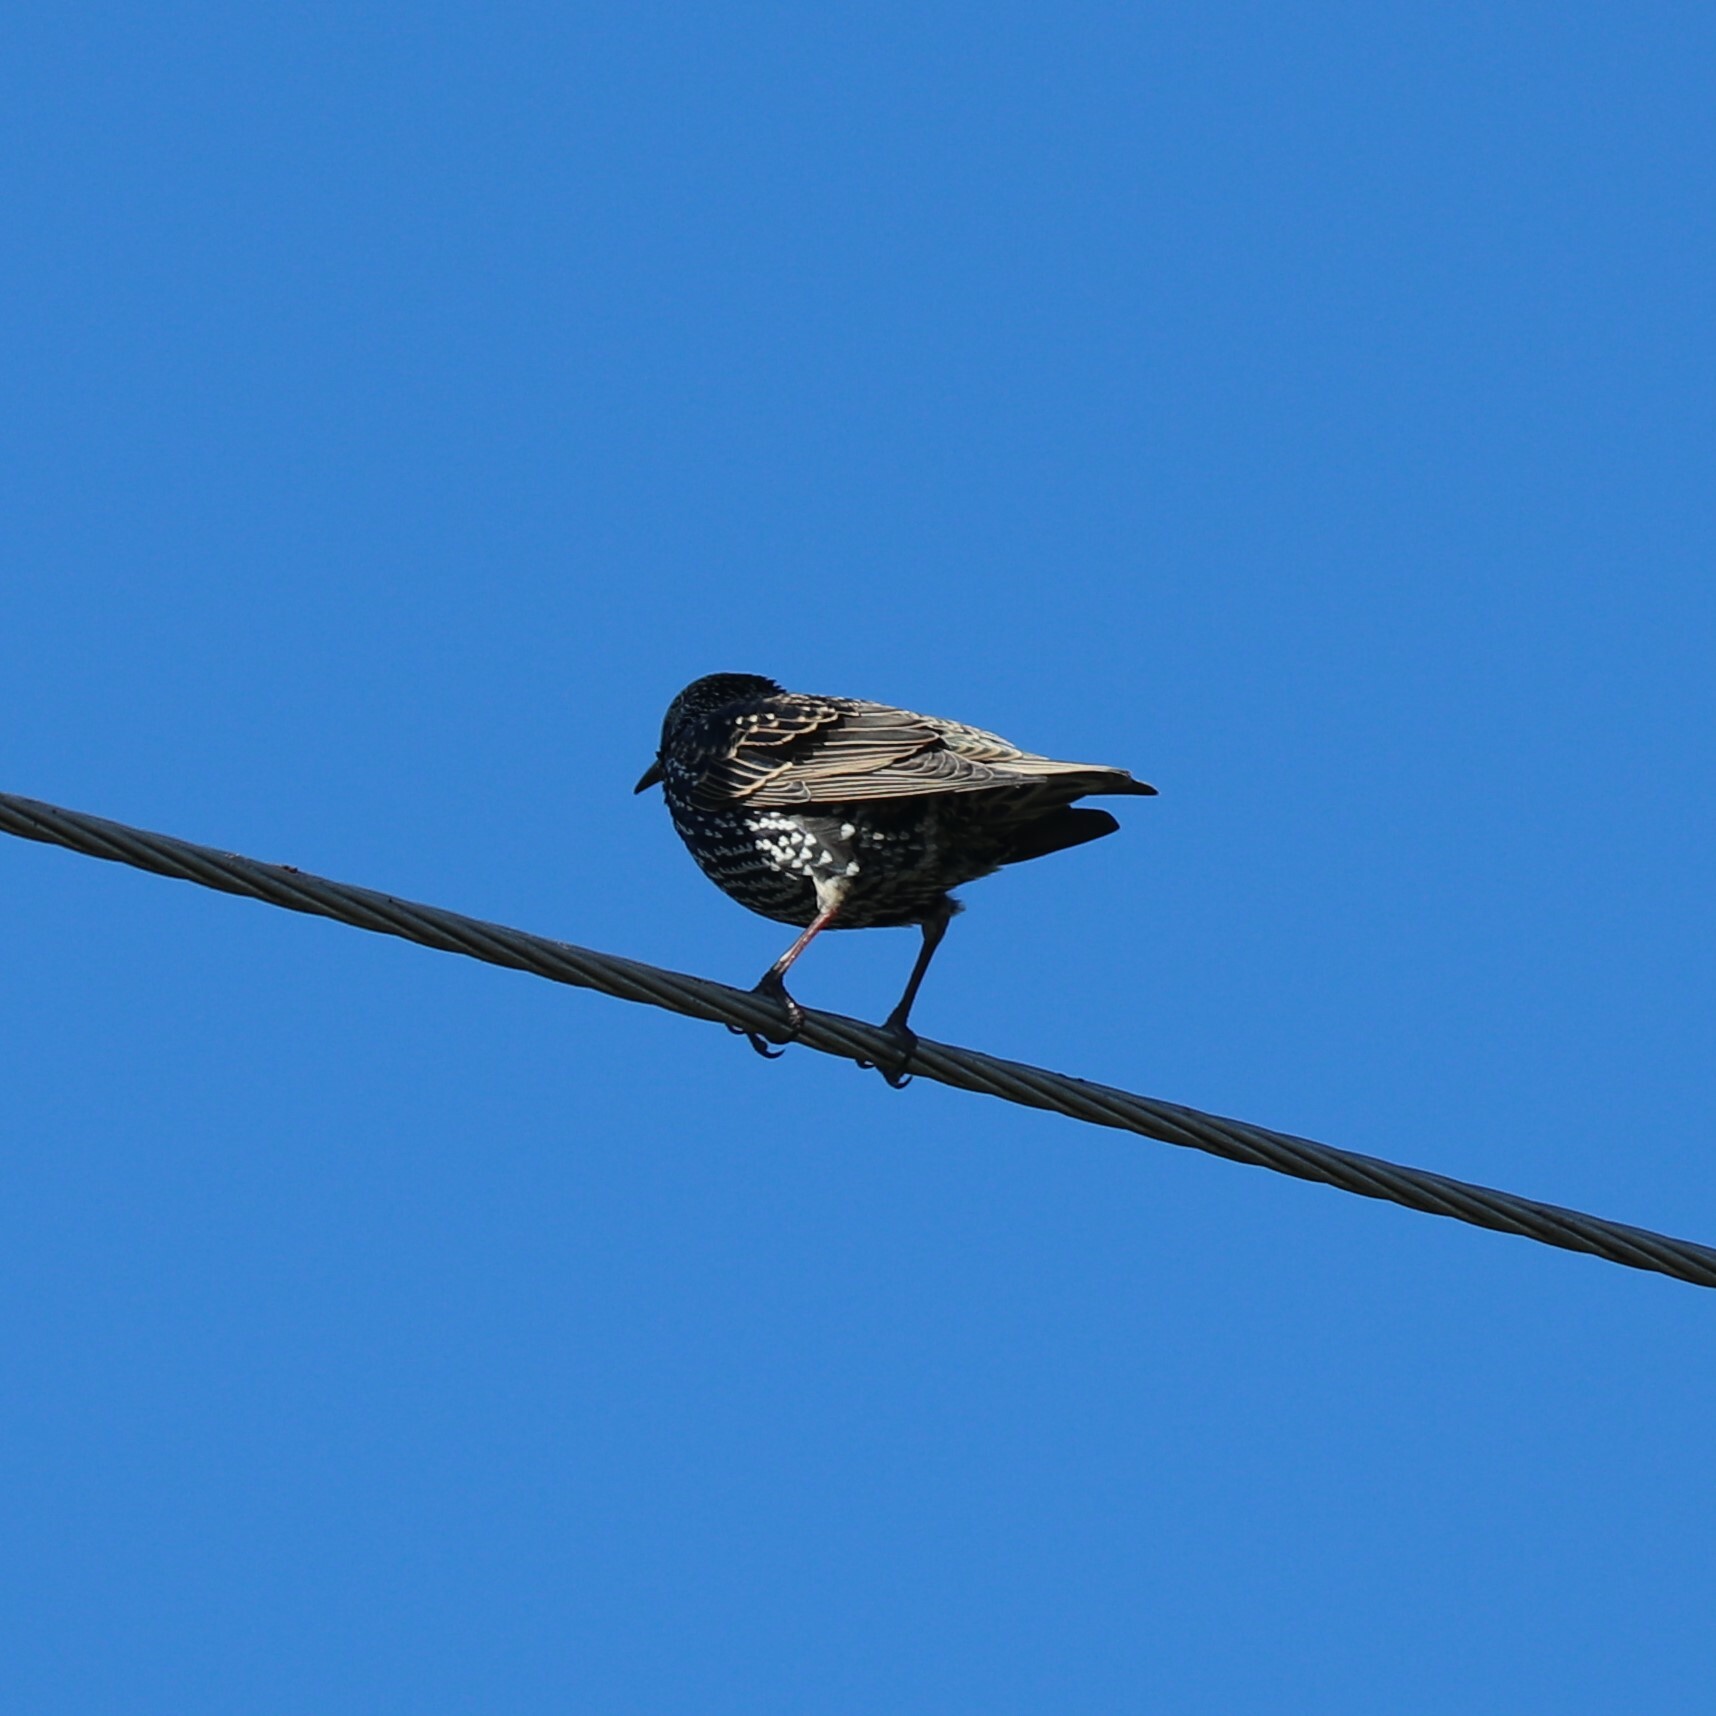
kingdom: Animalia
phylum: Chordata
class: Aves
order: Passeriformes
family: Sturnidae
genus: Sturnus
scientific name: Sturnus vulgaris
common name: Common starling
